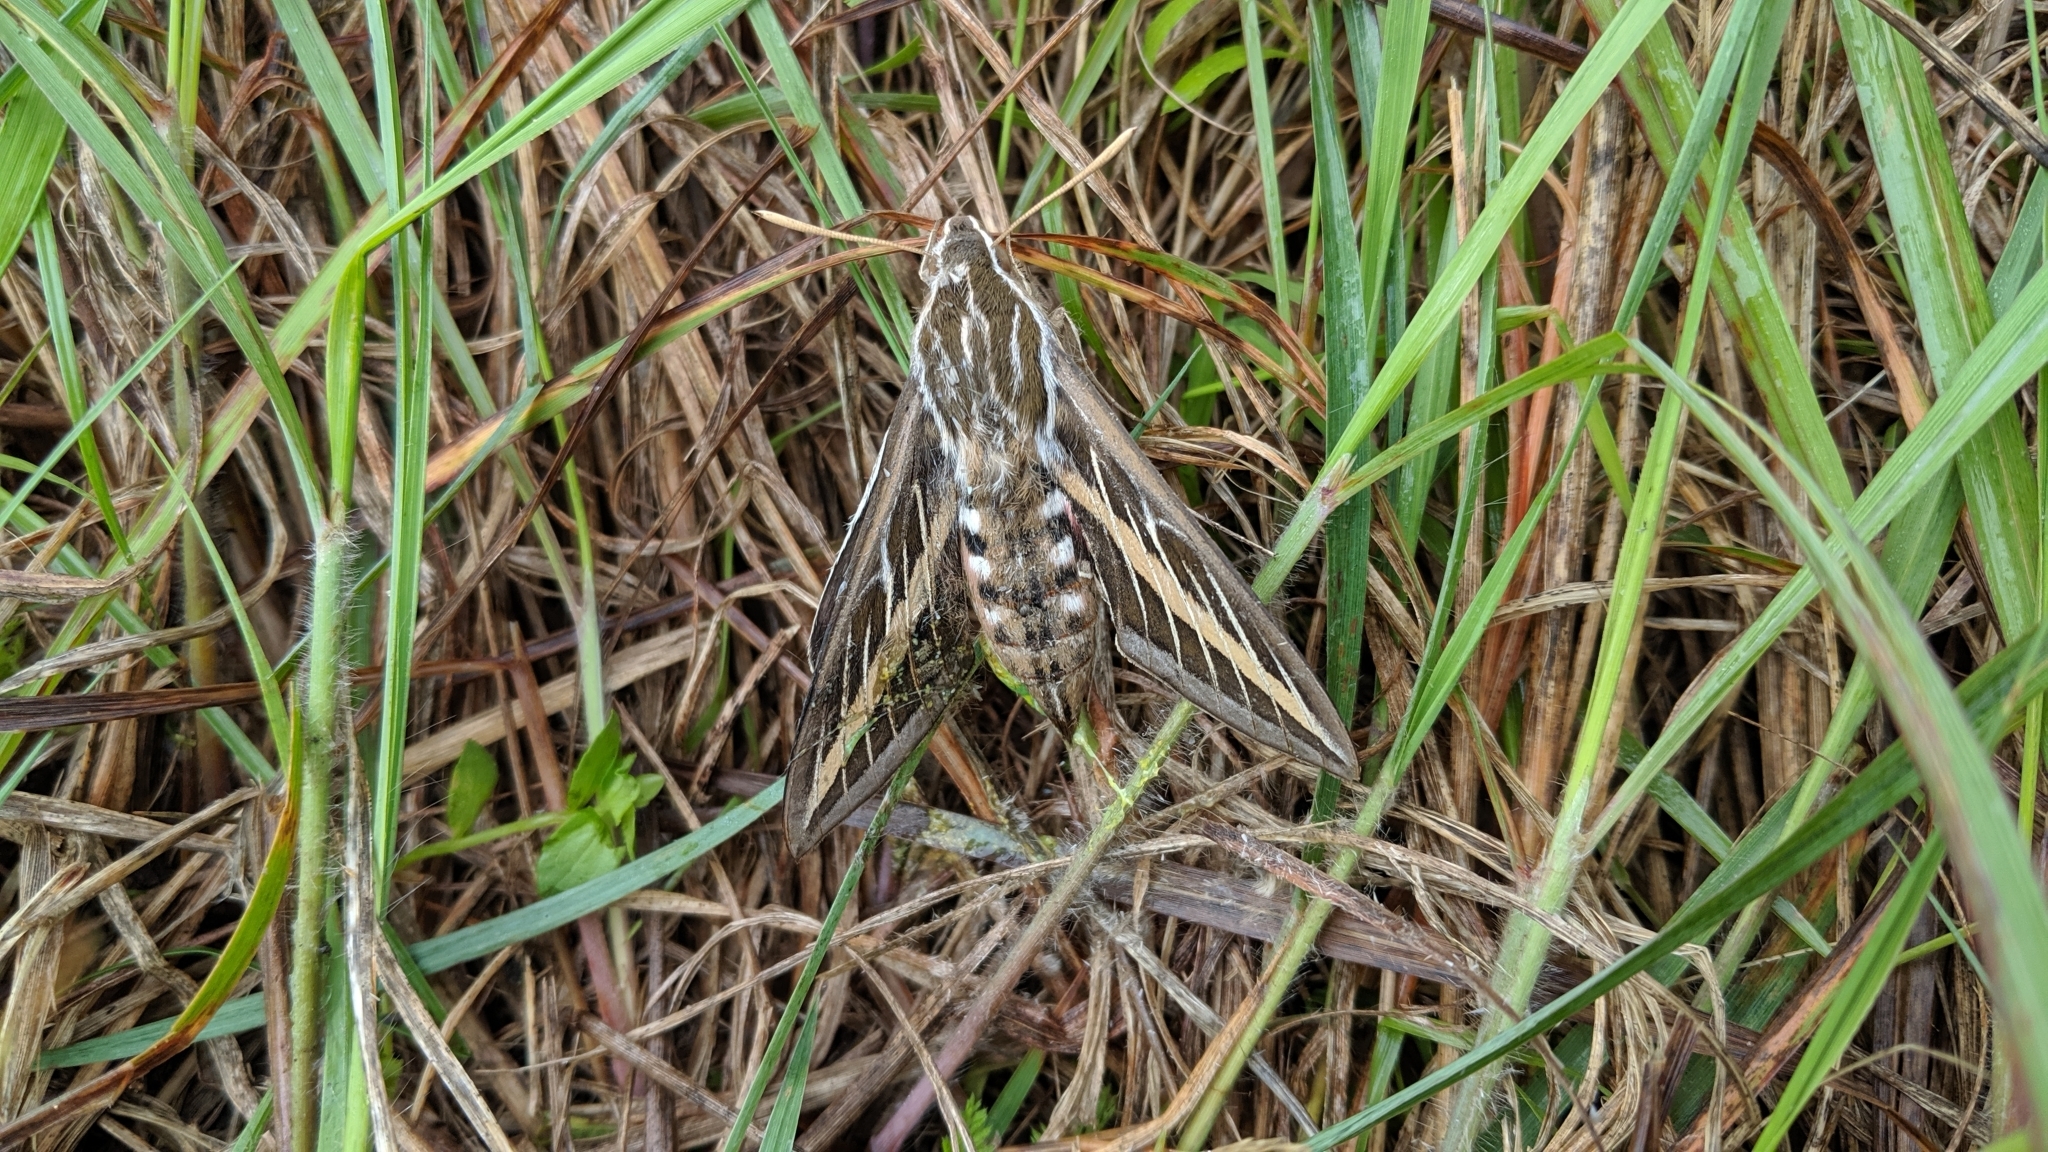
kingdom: Animalia
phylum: Arthropoda
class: Insecta
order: Lepidoptera
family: Sphingidae
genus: Hyles
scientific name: Hyles lineata
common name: White-lined sphinx
